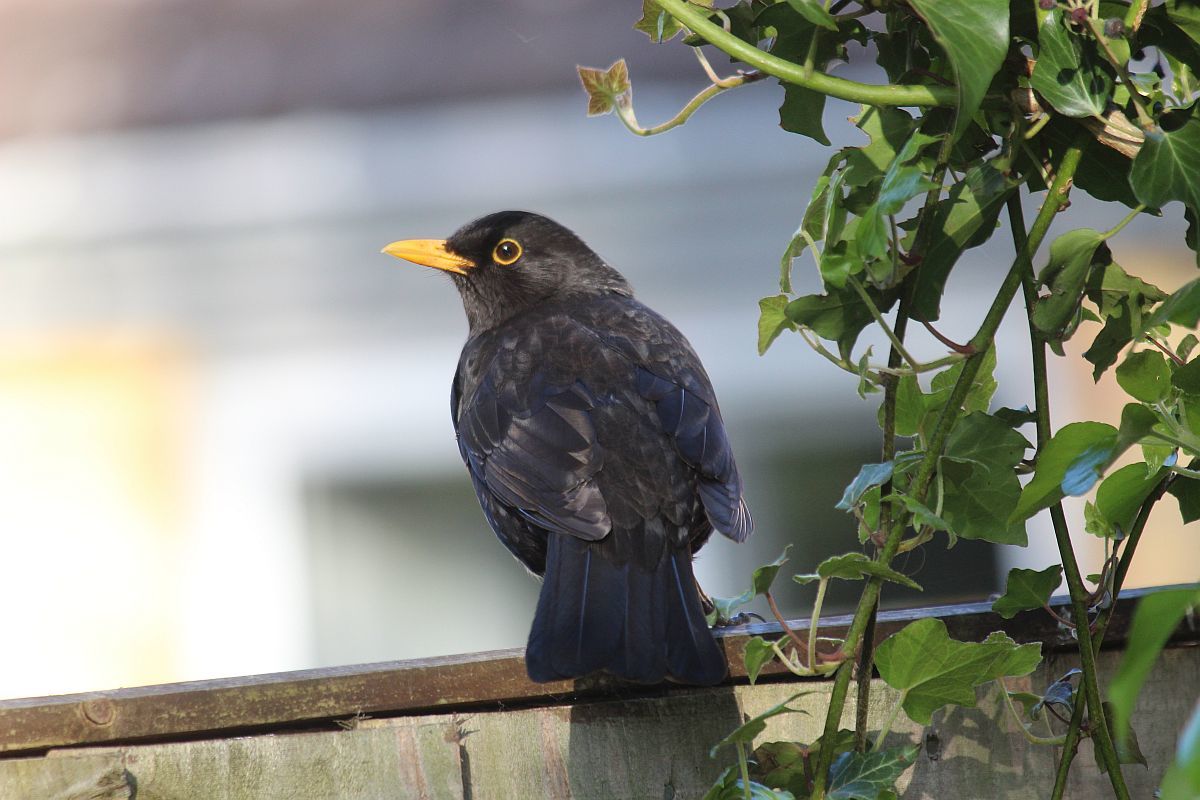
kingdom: Animalia
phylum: Chordata
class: Aves
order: Passeriformes
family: Turdidae
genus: Turdus
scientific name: Turdus merula
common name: Common blackbird
